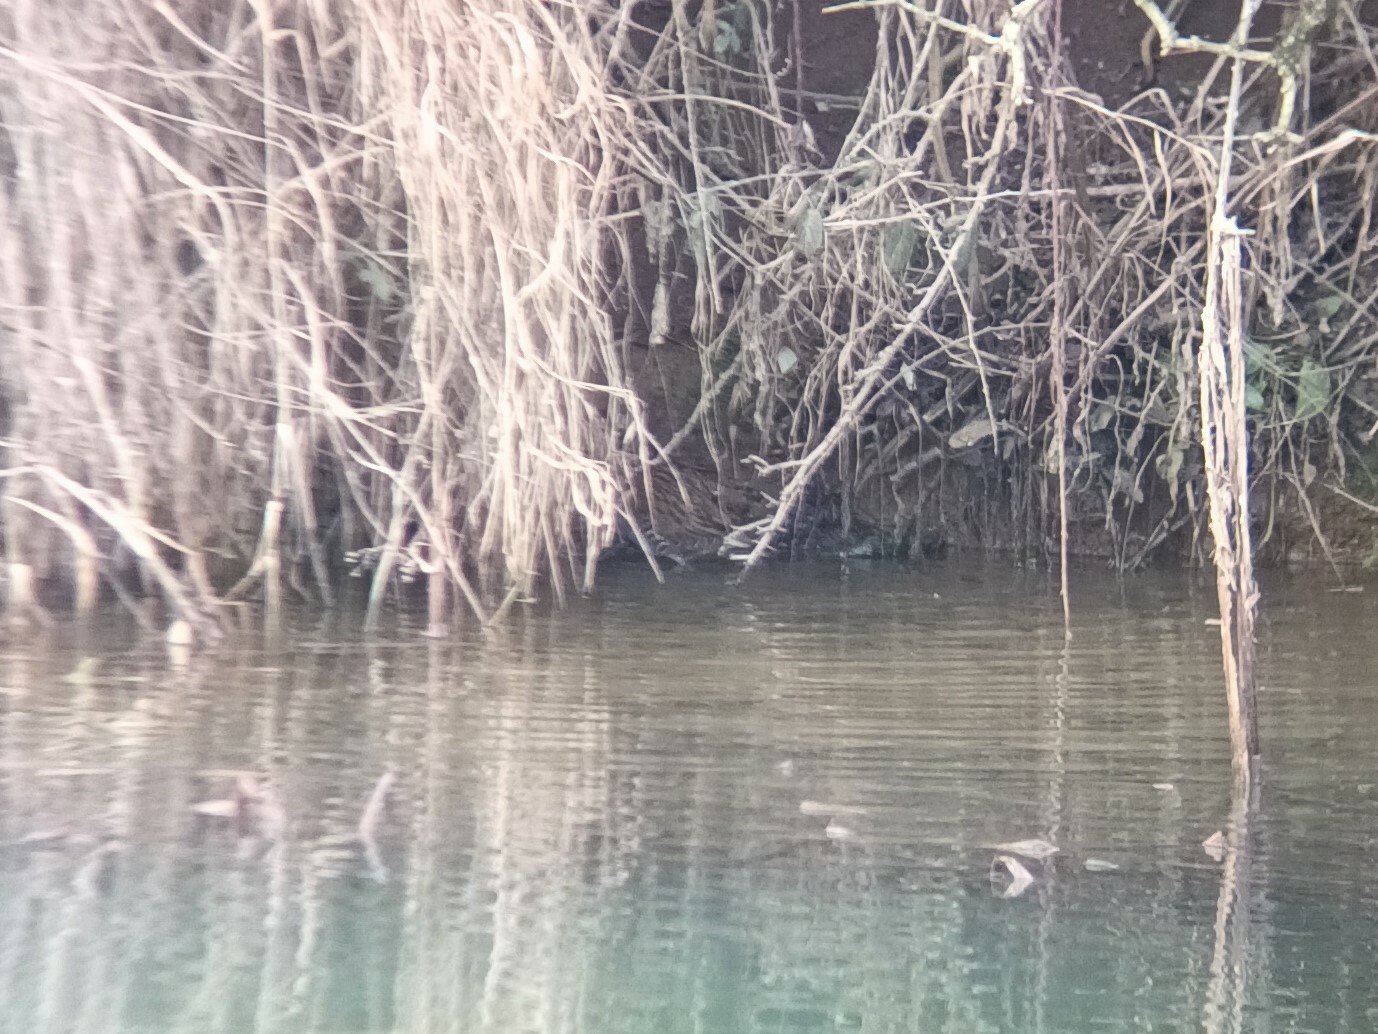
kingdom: Animalia
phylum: Chordata
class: Aves
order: Gruiformes
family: Rallidae
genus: Rallus
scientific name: Rallus aquaticus
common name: Water rail
